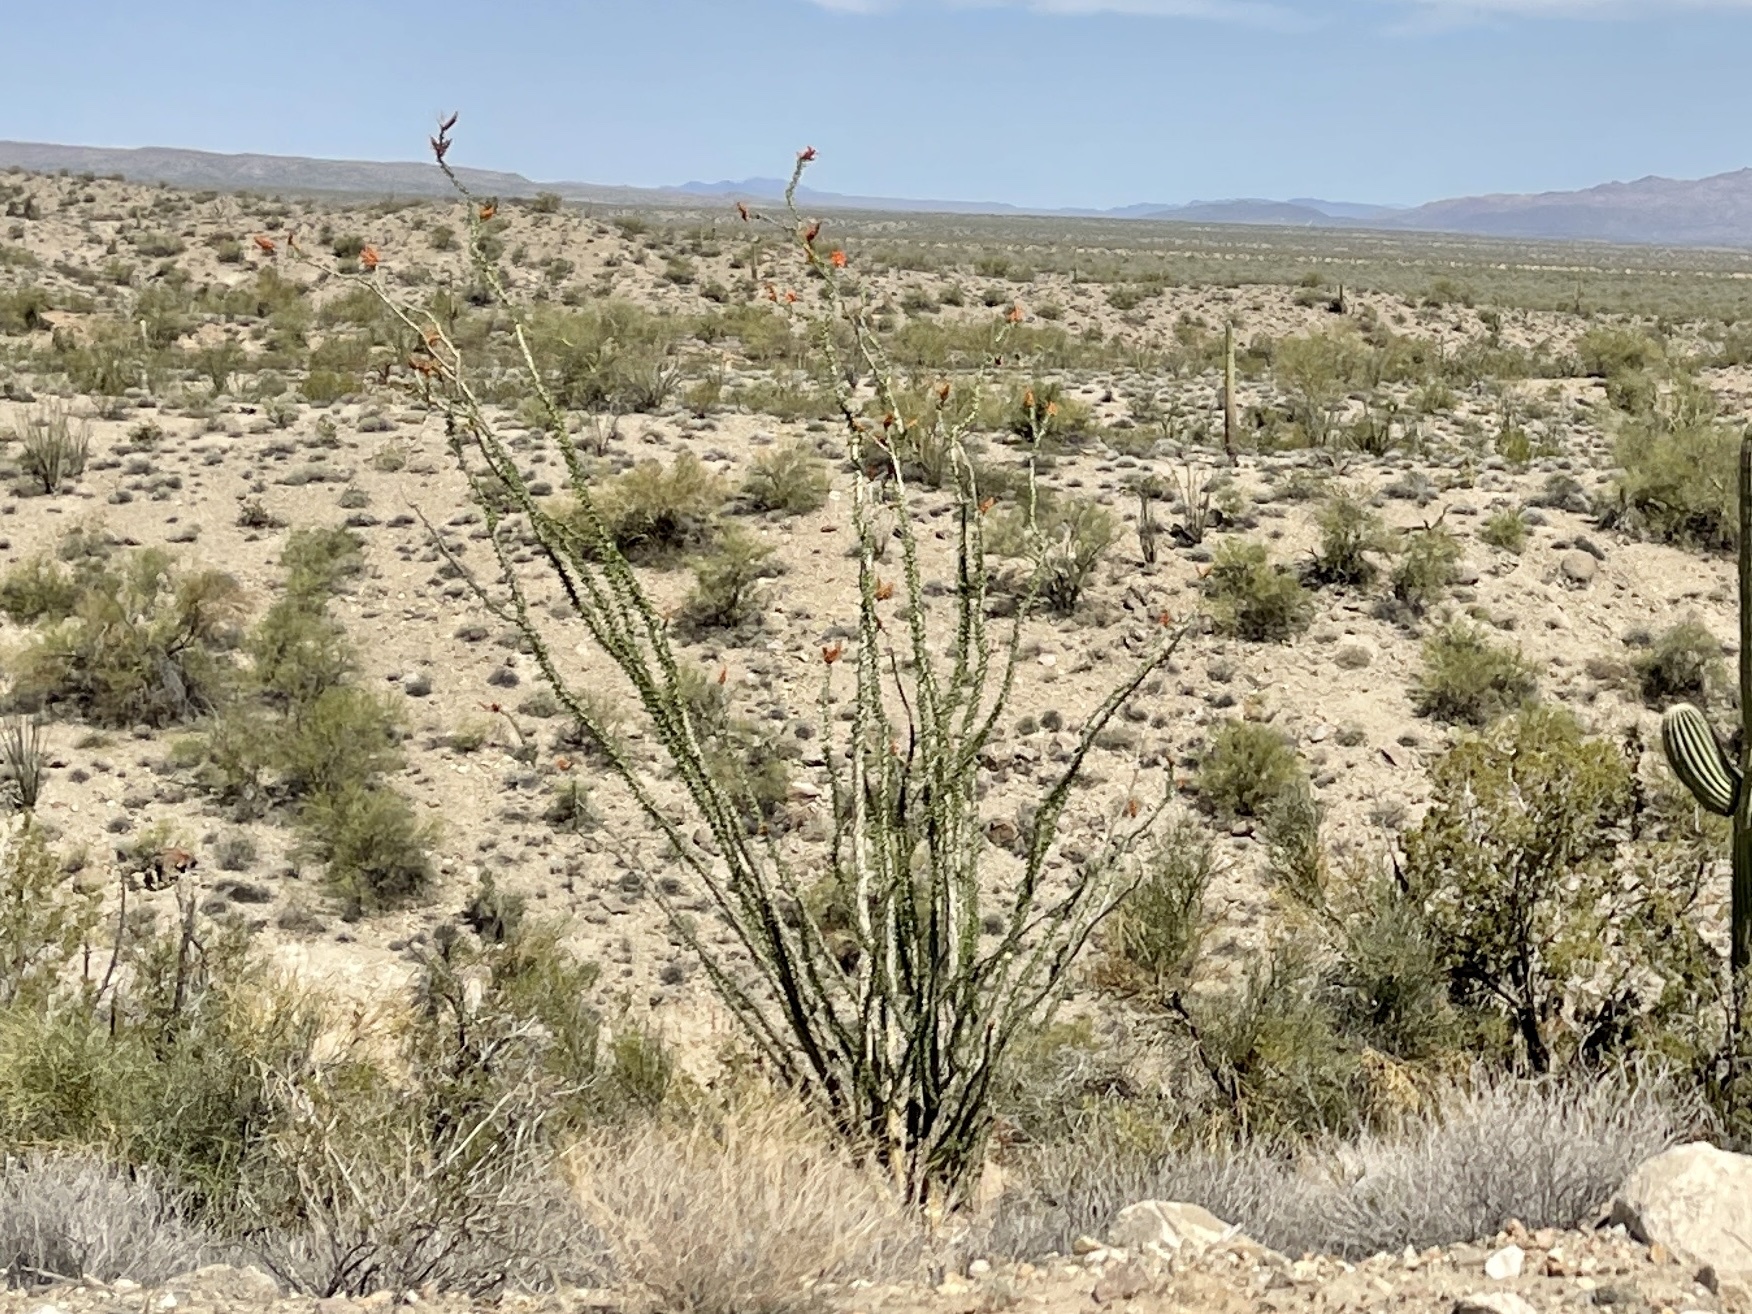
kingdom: Plantae
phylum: Tracheophyta
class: Magnoliopsida
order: Ericales
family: Fouquieriaceae
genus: Fouquieria
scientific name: Fouquieria splendens
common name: Vine-cactus
